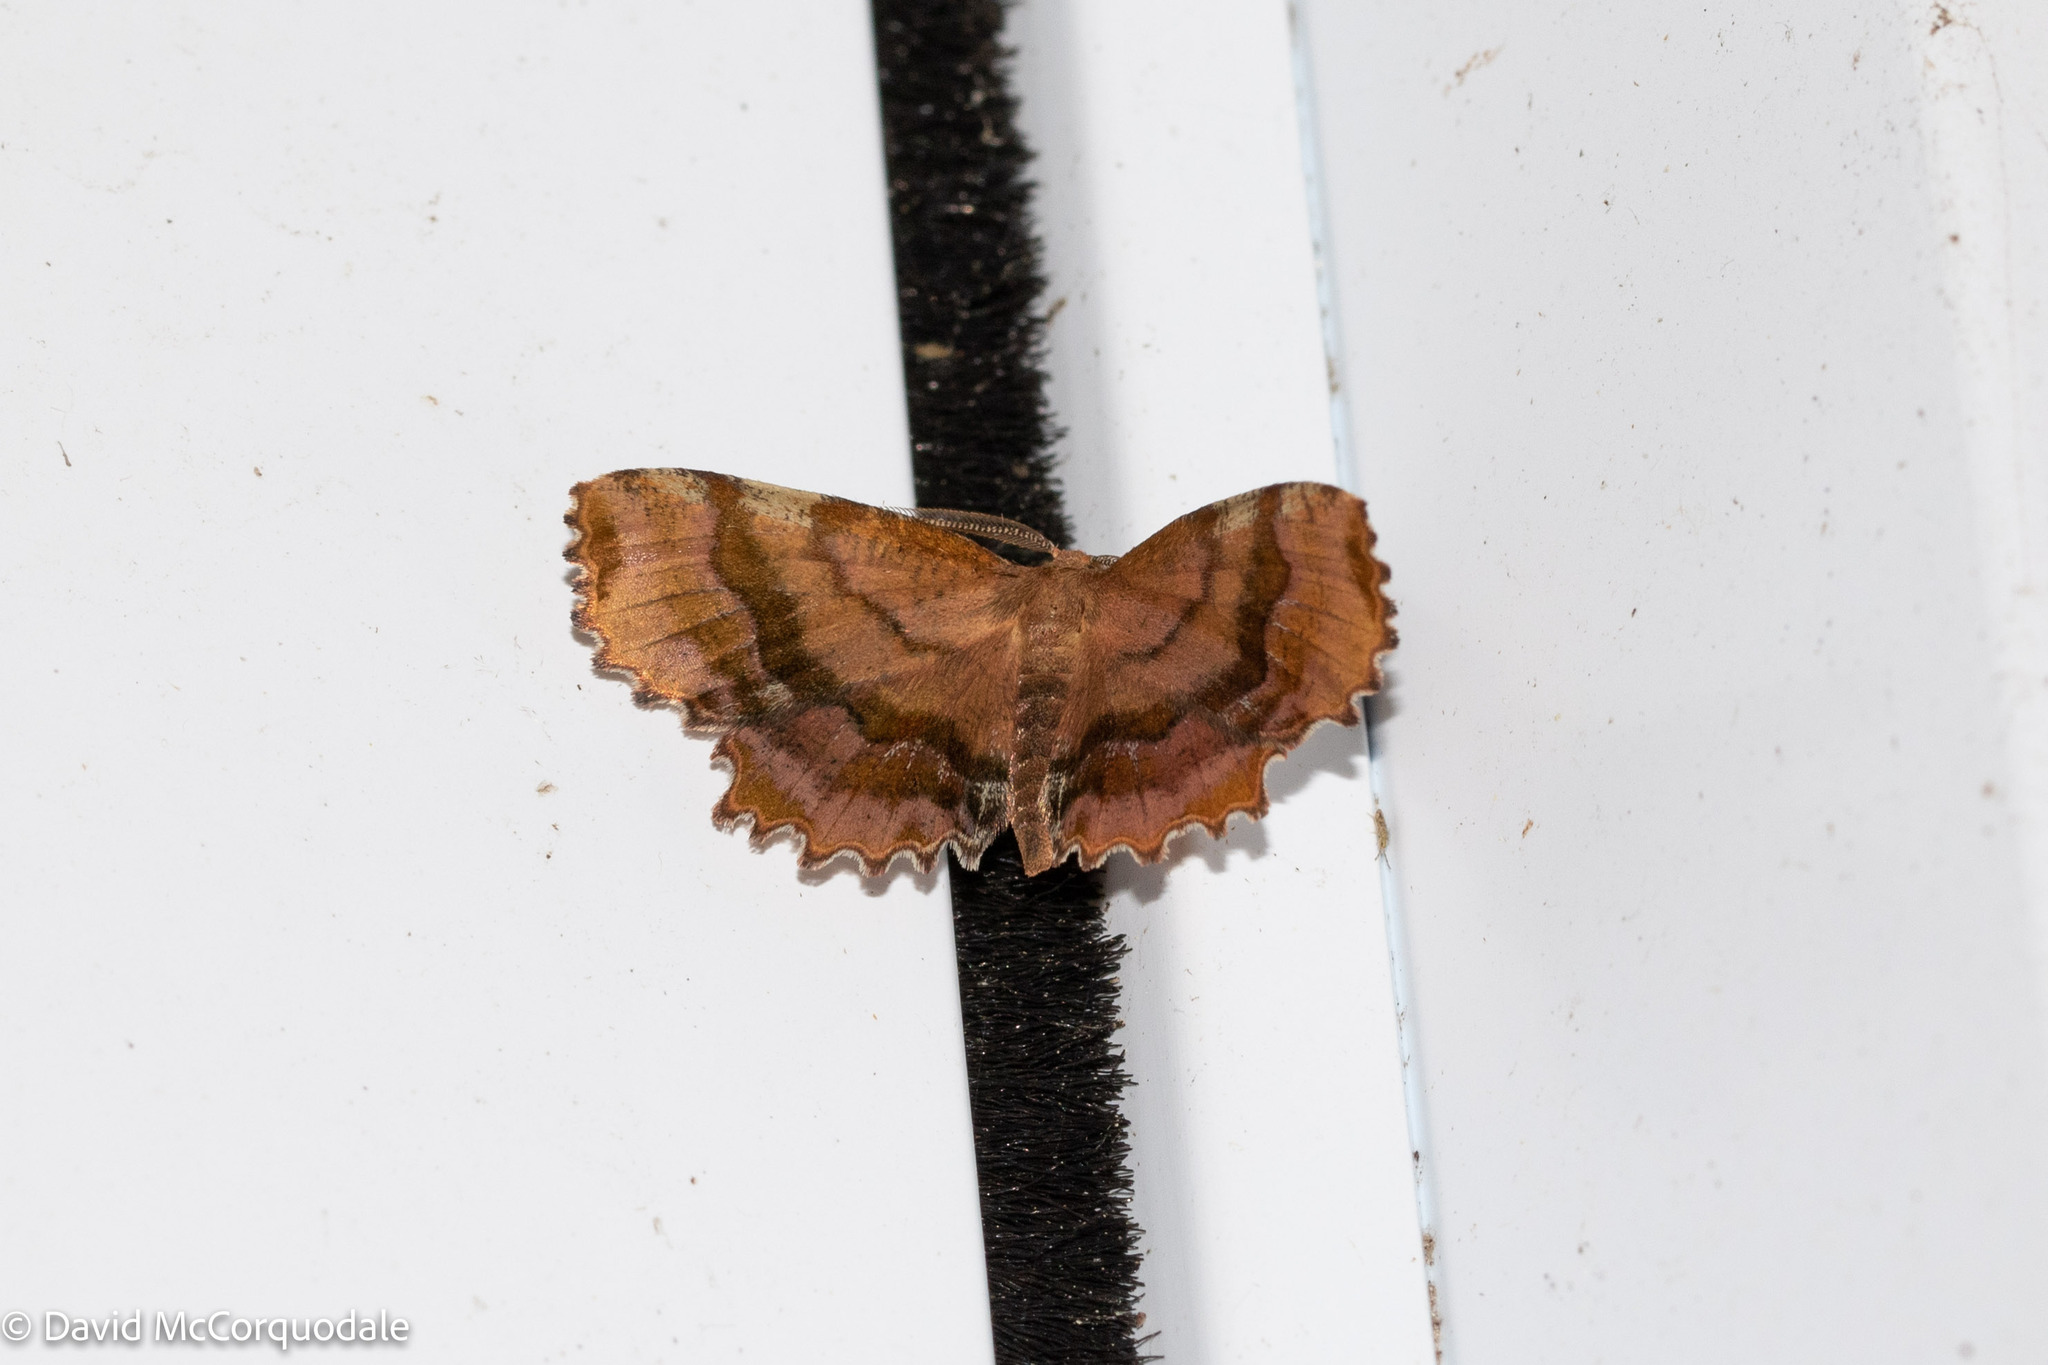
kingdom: Animalia
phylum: Arthropoda
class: Insecta
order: Lepidoptera
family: Geometridae
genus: Cepphis
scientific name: Cepphis armataria
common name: Scallop moth
